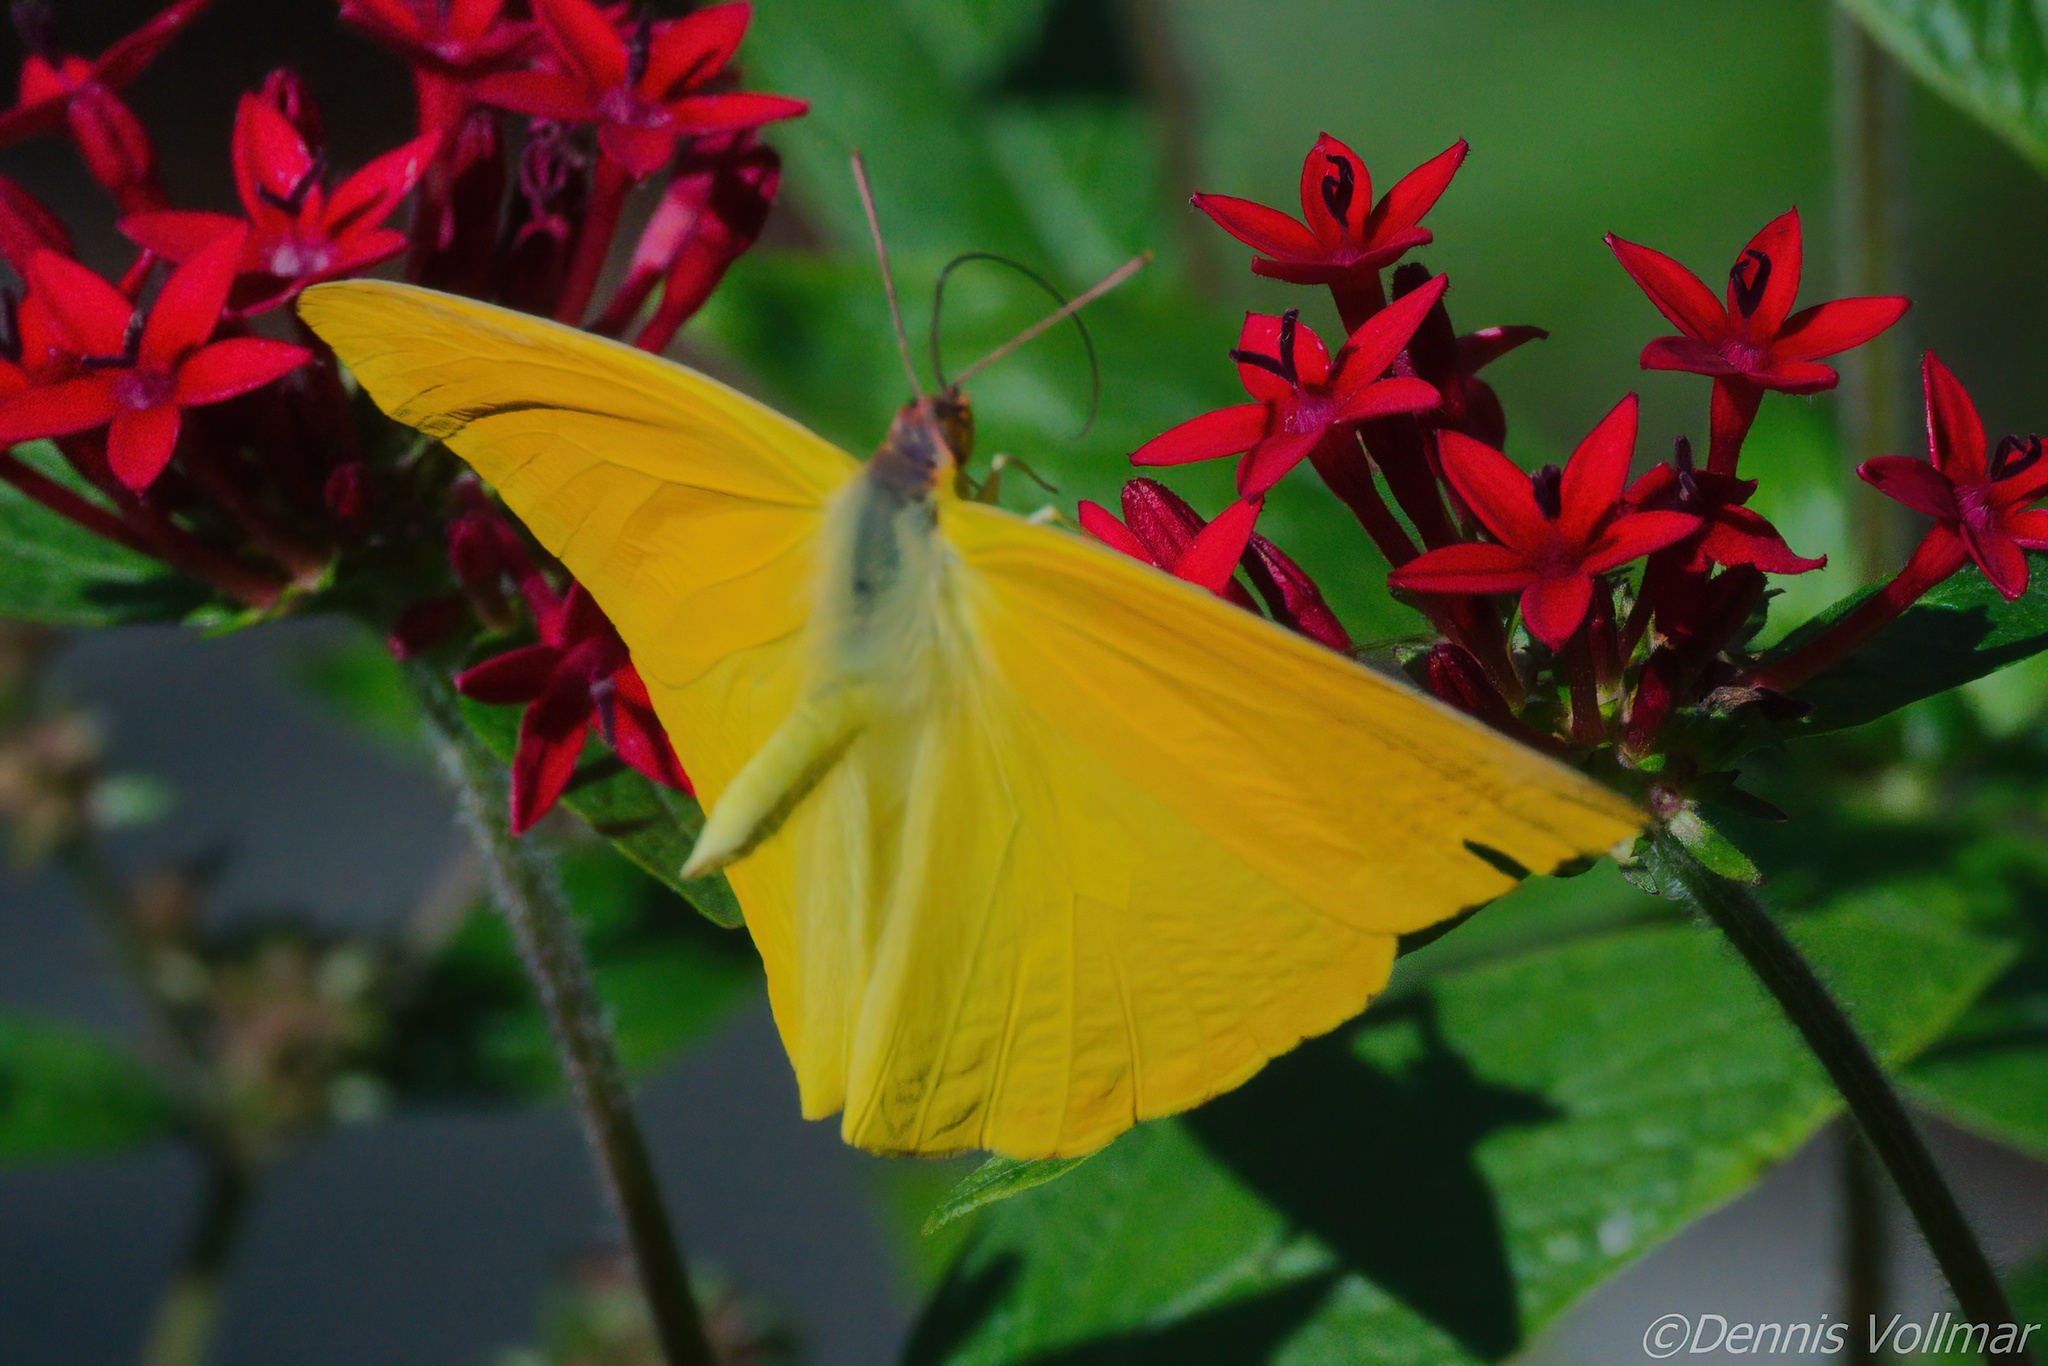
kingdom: Animalia
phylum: Arthropoda
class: Insecta
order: Lepidoptera
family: Pieridae
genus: Phoebis
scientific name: Phoebis agarithe
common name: Large orange sulphur
